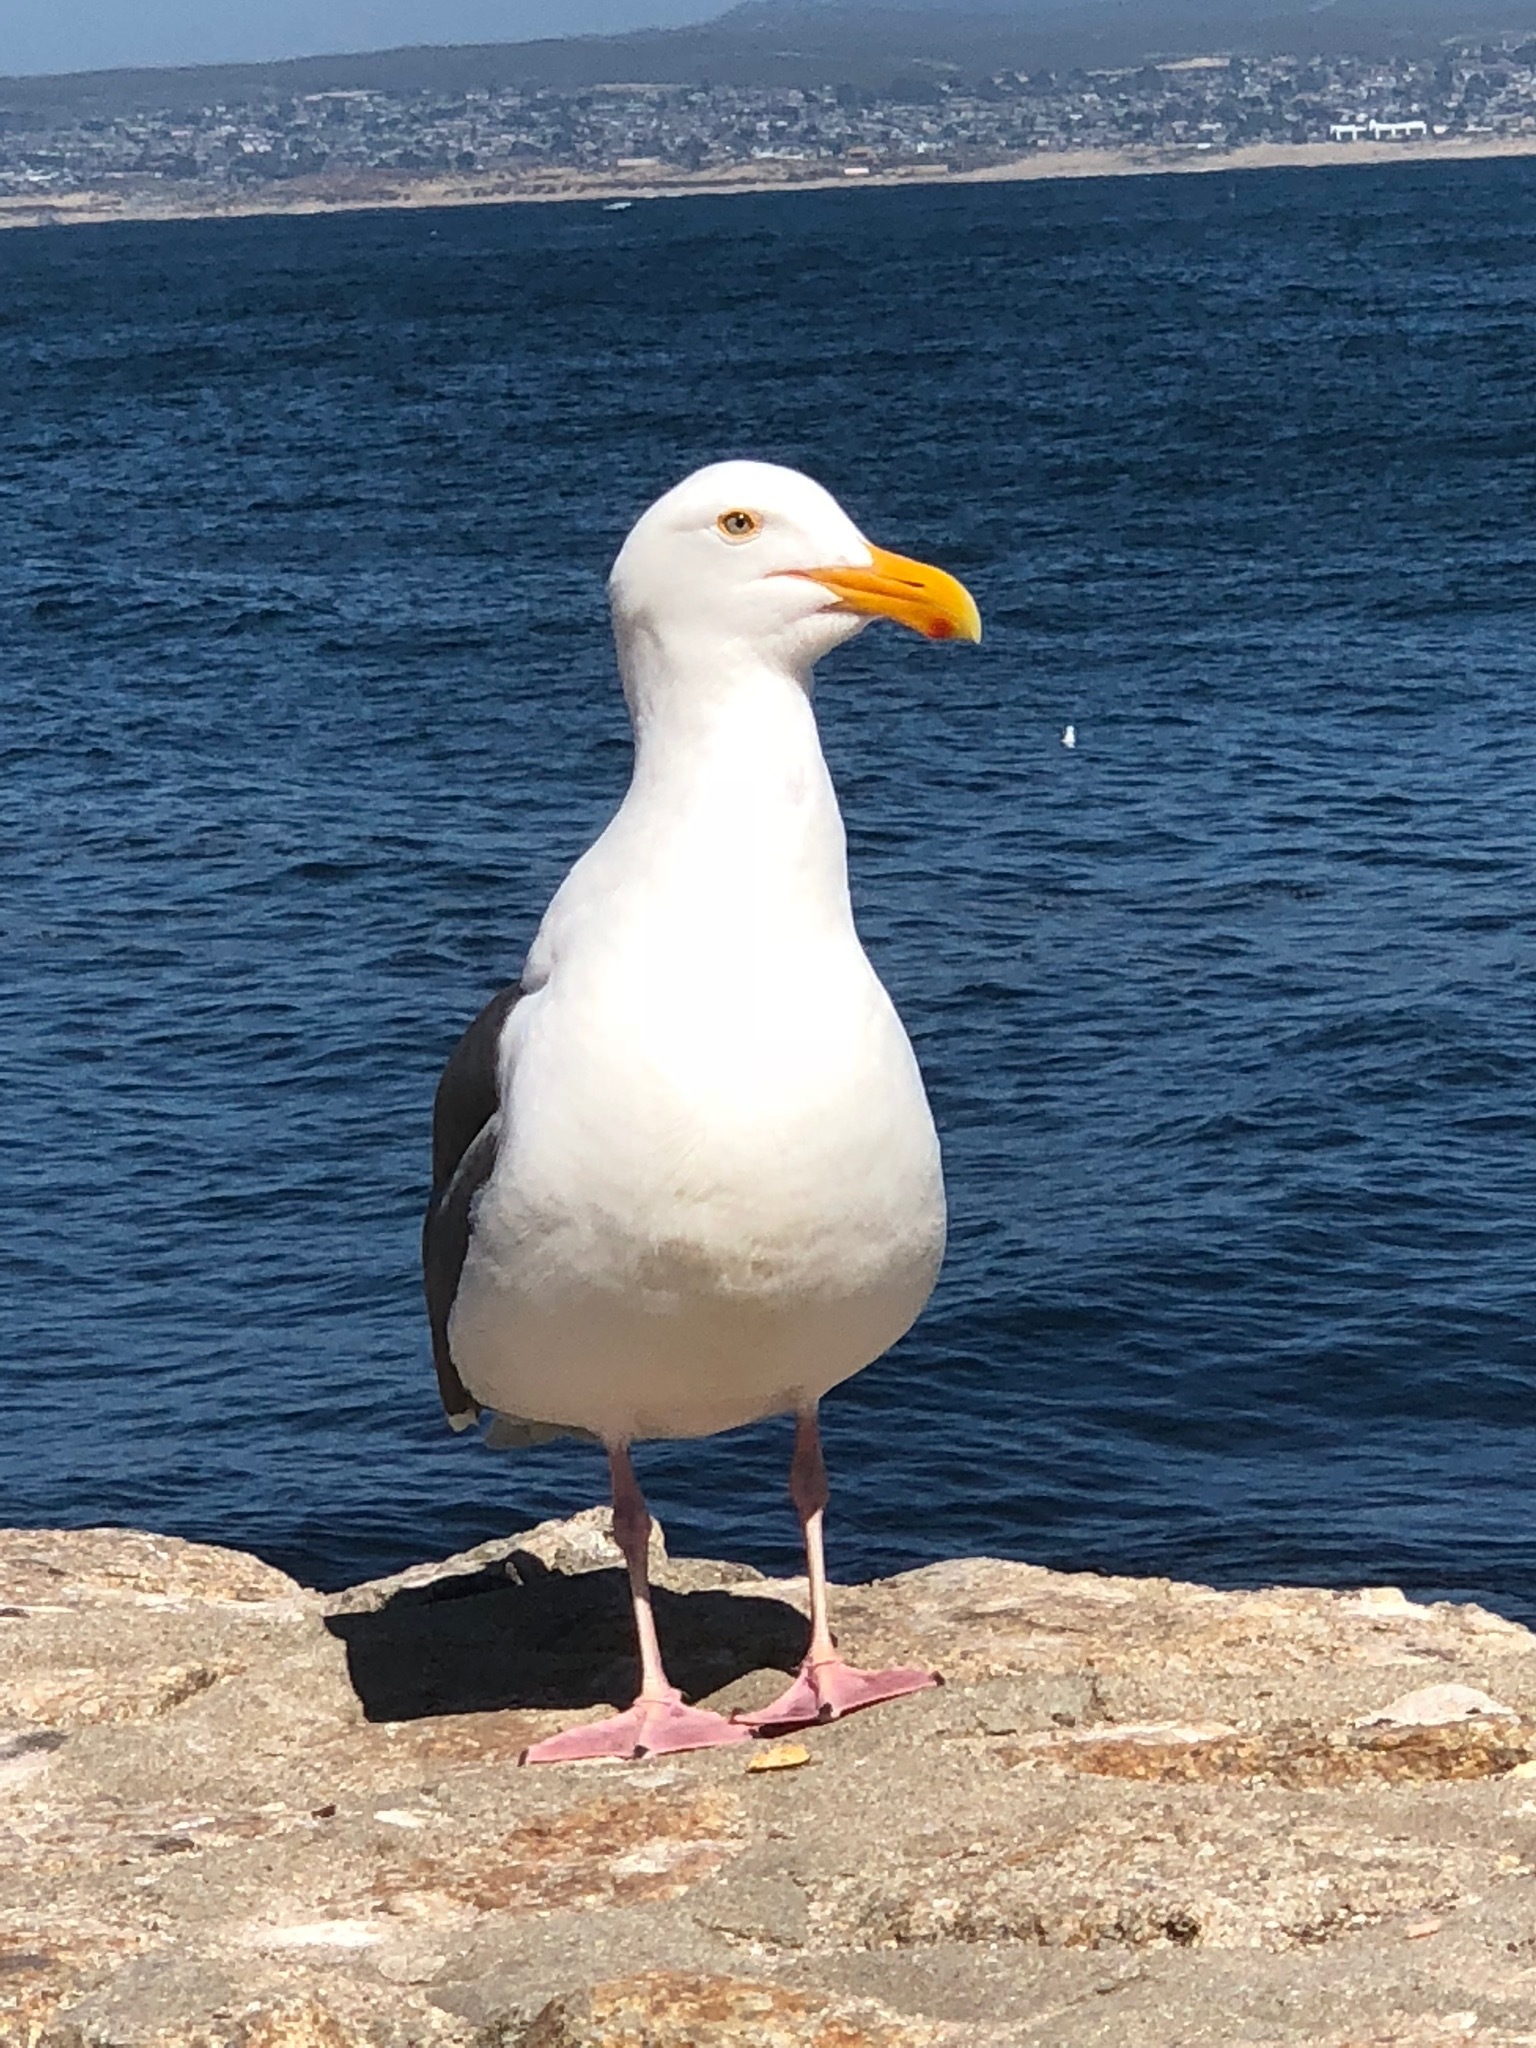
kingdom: Animalia
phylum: Chordata
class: Aves
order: Charadriiformes
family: Laridae
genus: Larus
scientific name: Larus occidentalis
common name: Western gull
